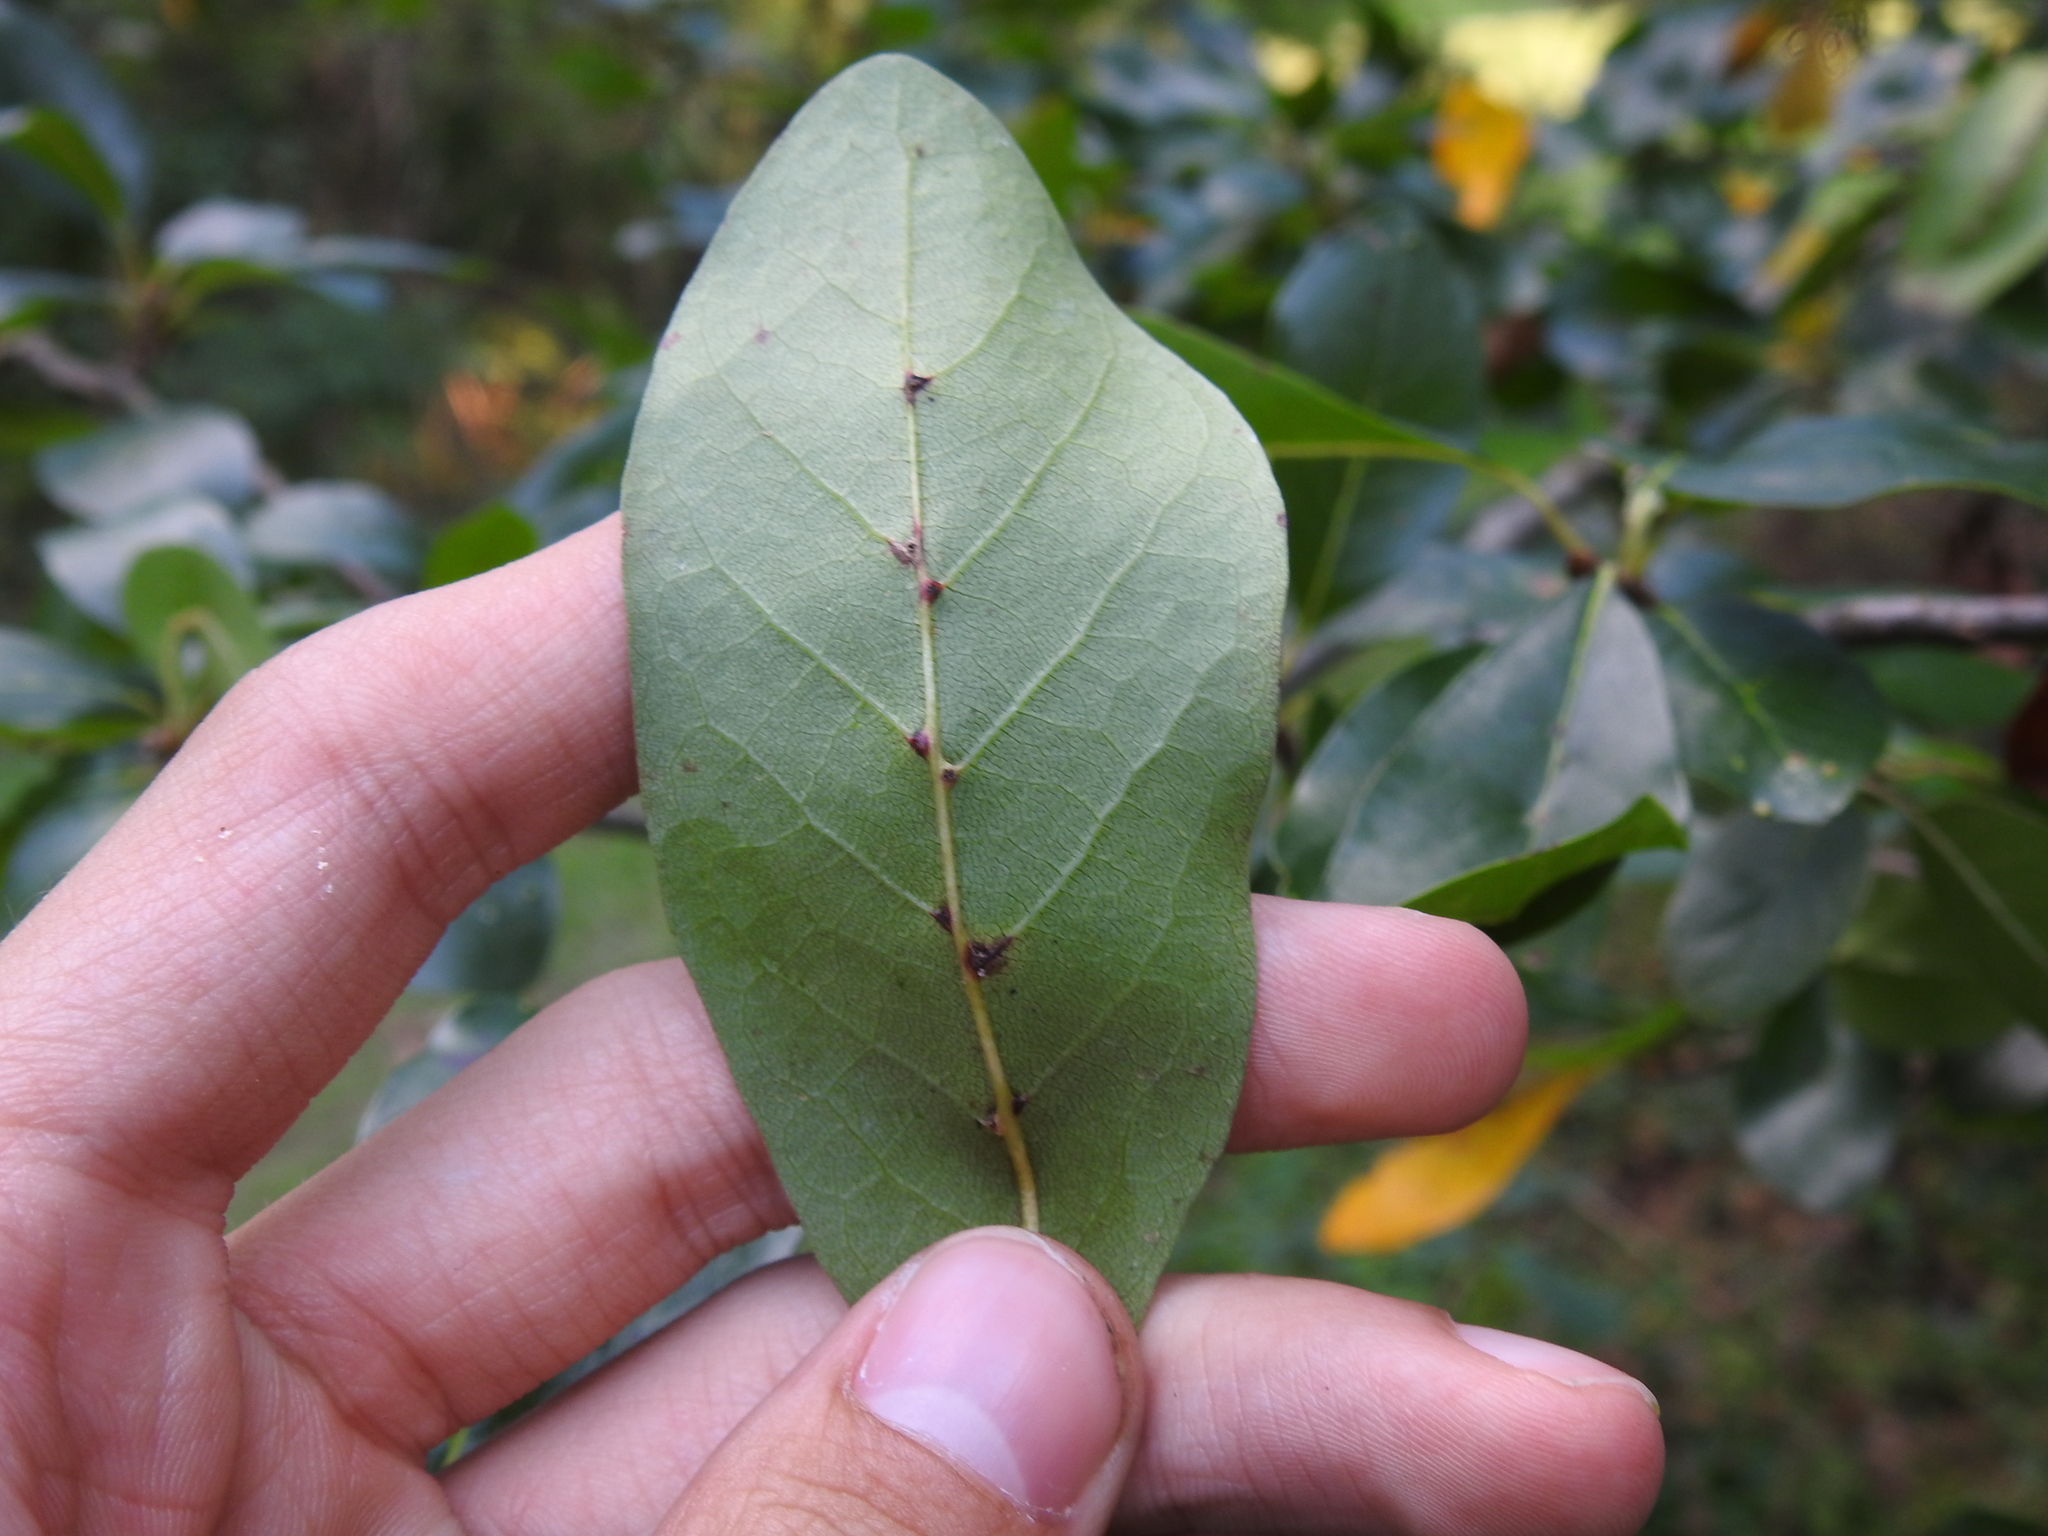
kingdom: Animalia
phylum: Arthropoda
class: Arachnida
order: Trombidiformes
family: Eriophyidae
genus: Cenalox
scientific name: Cenalox
